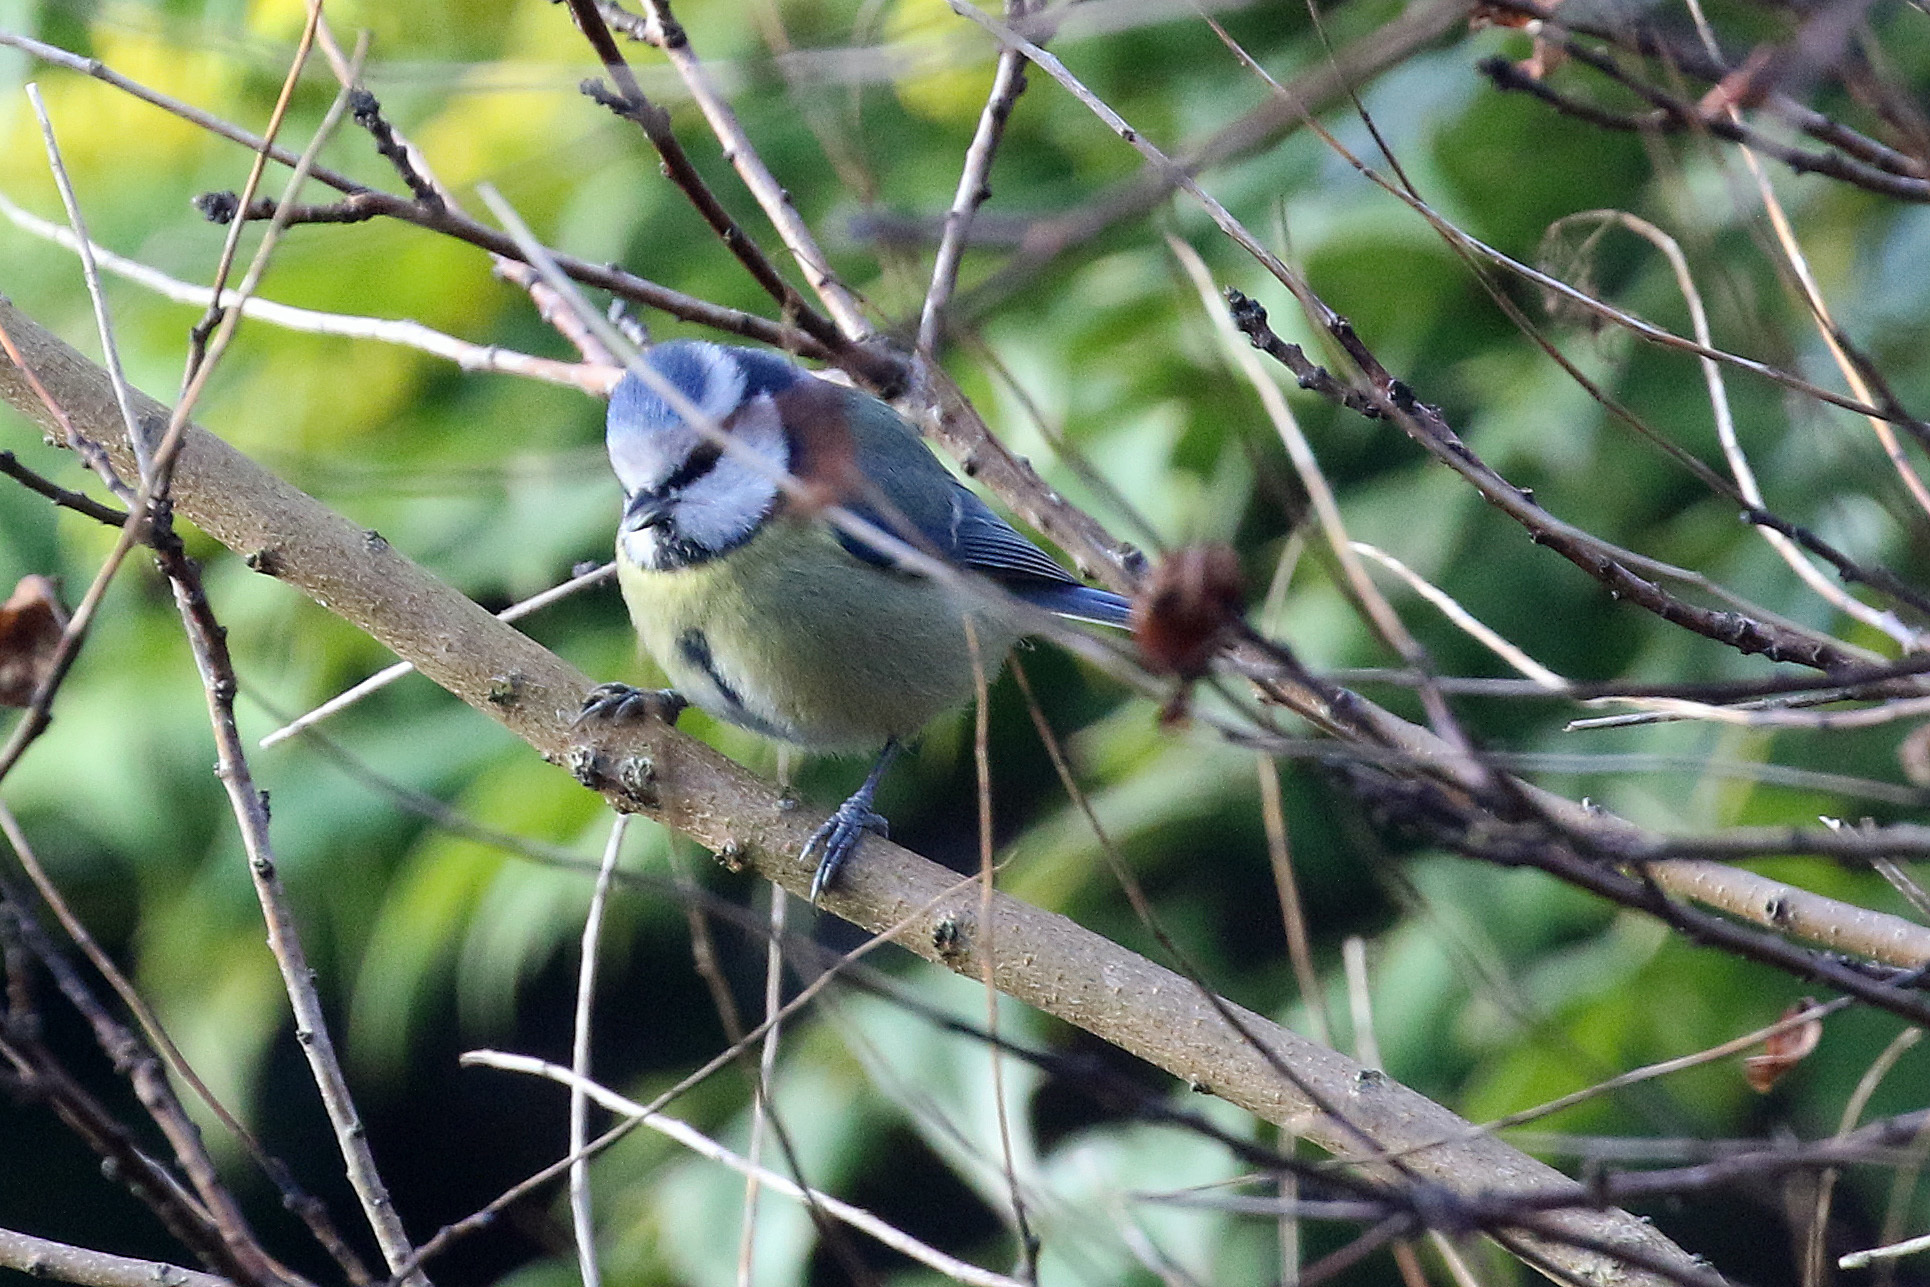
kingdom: Animalia
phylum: Chordata
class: Aves
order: Passeriformes
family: Paridae
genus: Cyanistes
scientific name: Cyanistes caeruleus
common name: Eurasian blue tit
